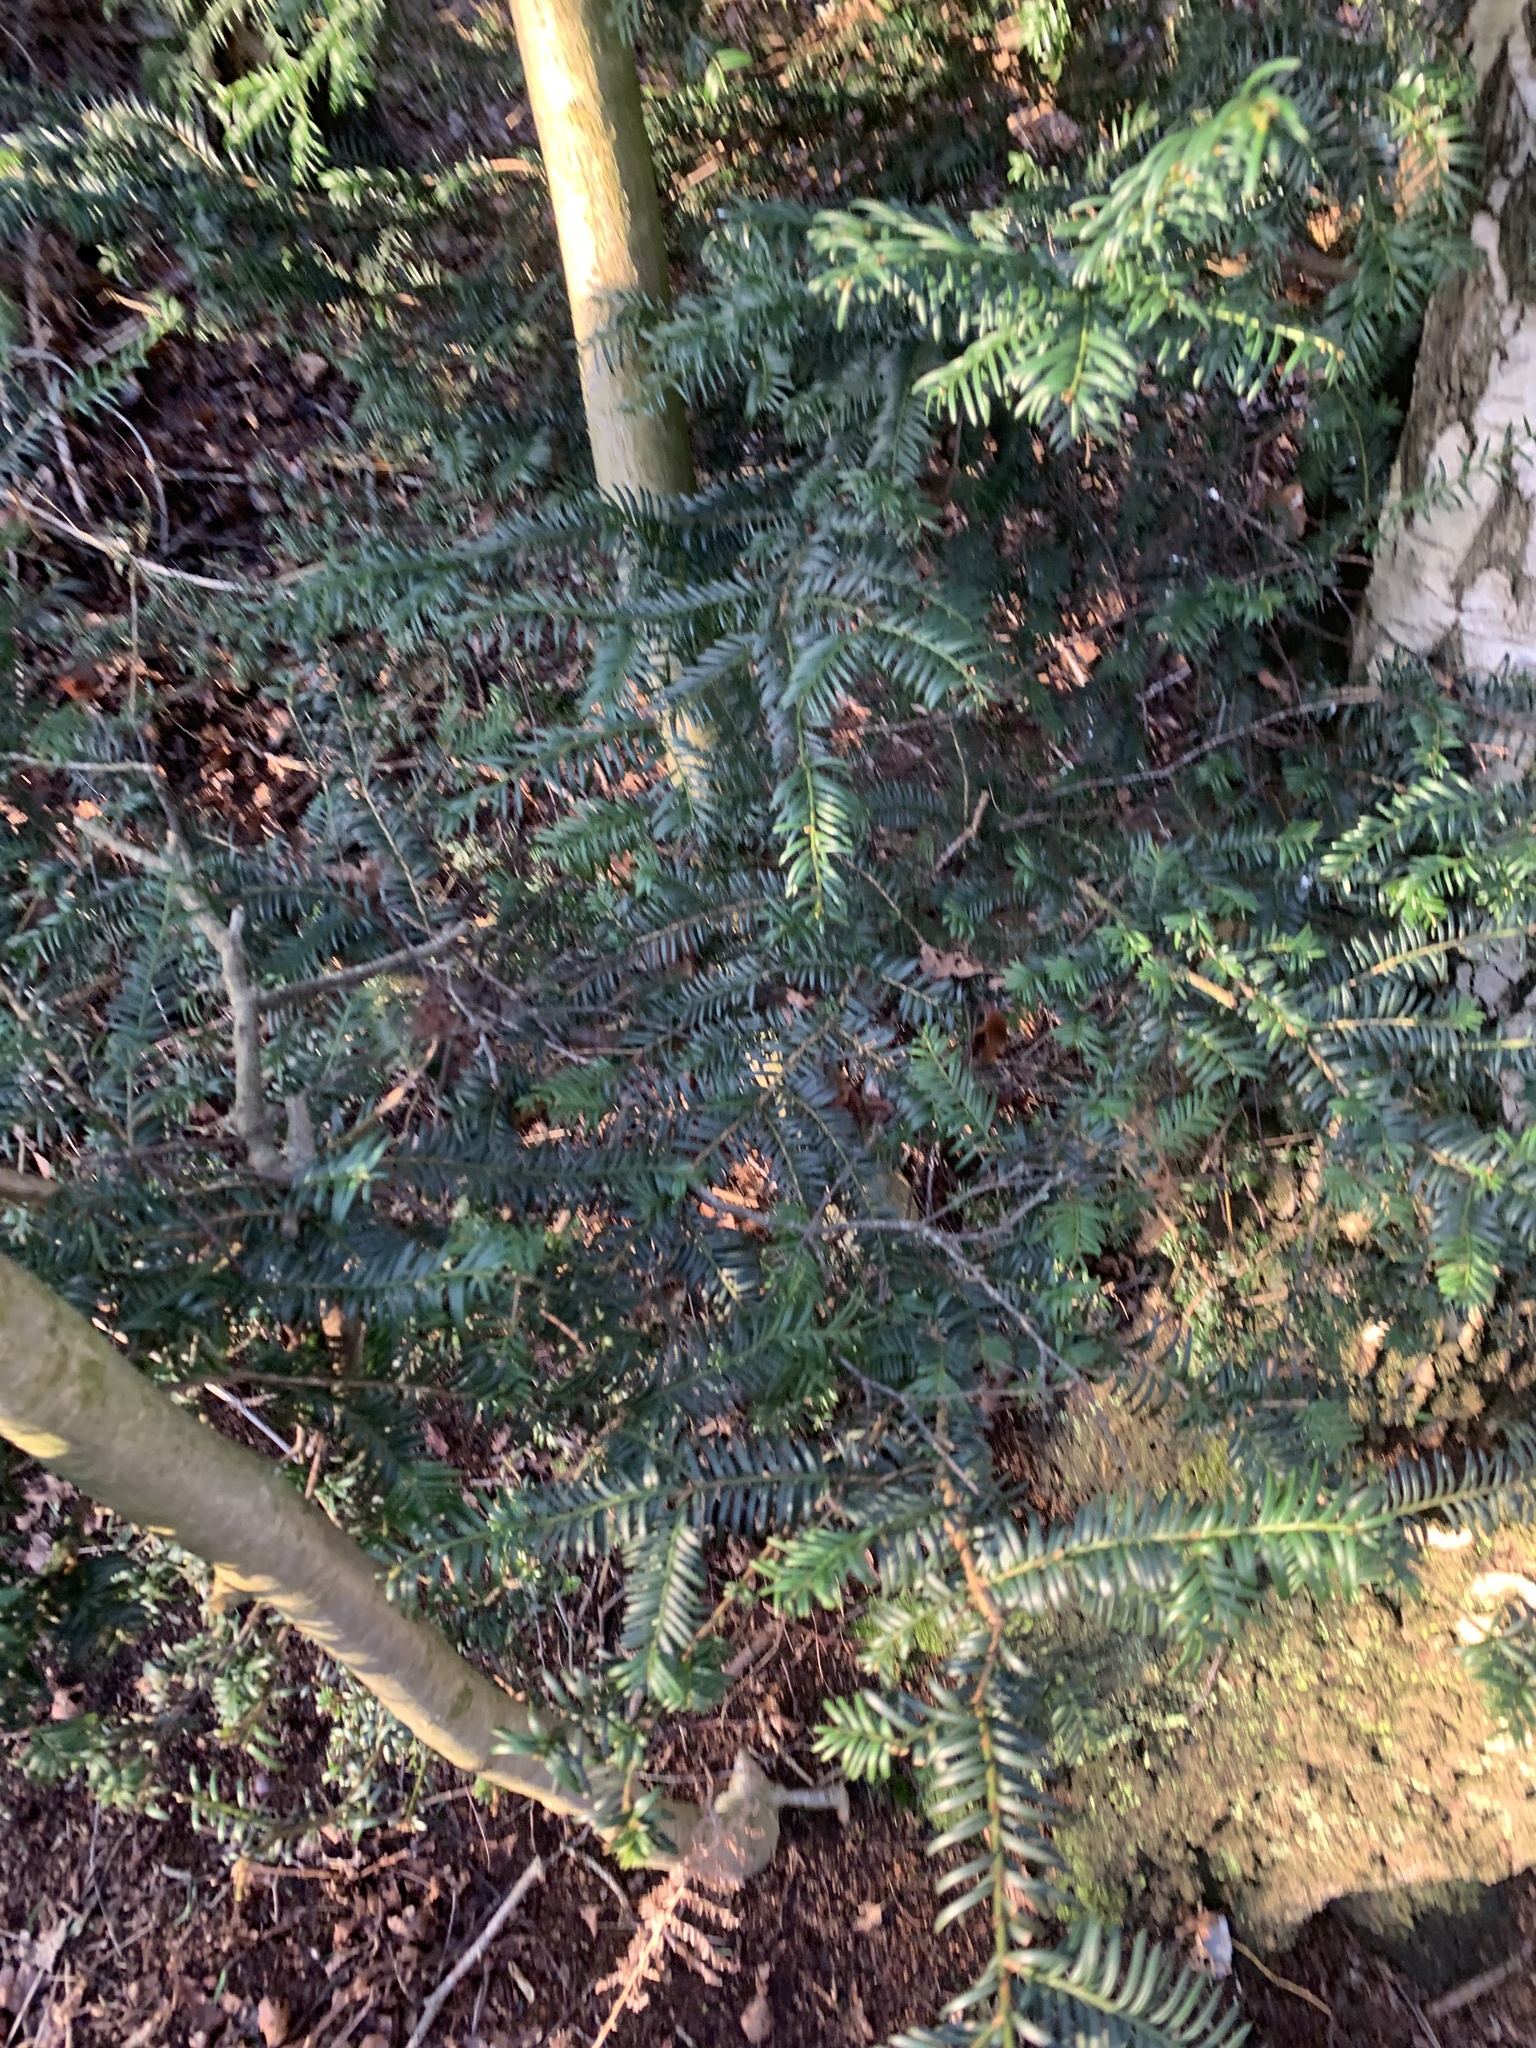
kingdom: Plantae
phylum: Tracheophyta
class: Pinopsida
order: Pinales
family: Taxaceae
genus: Taxus
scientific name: Taxus baccata
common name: Yew
